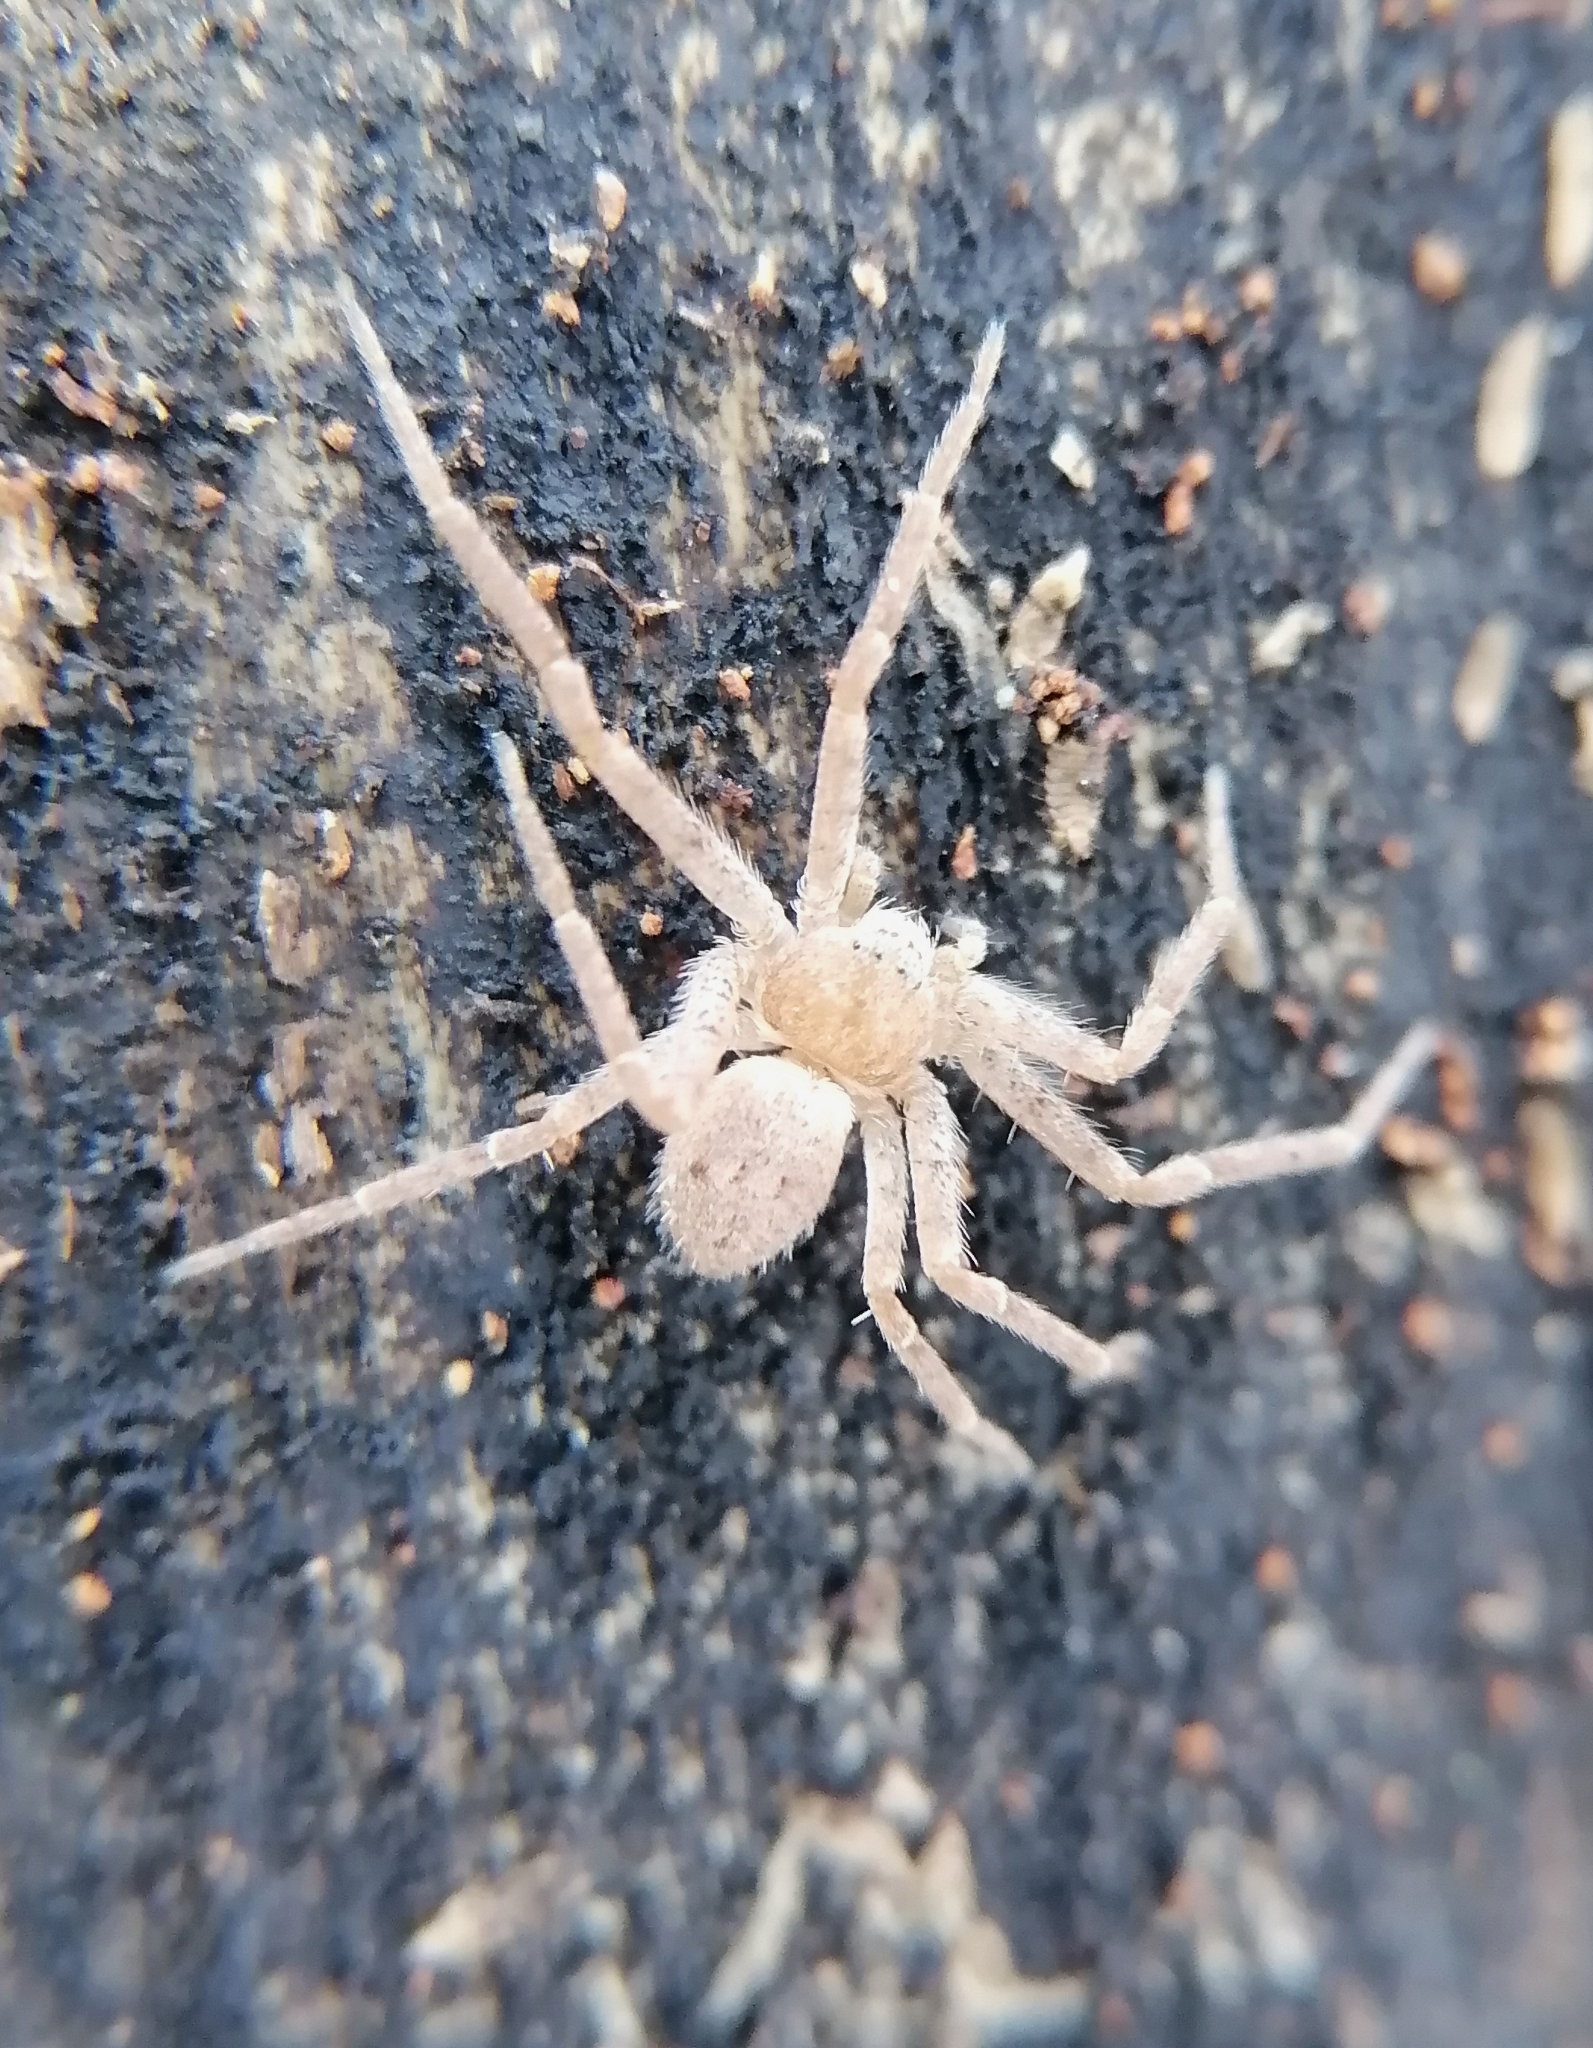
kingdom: Animalia
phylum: Arthropoda
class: Arachnida
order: Araneae
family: Philodromidae
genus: Philodromus
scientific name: Philodromus fuscomarginatus
